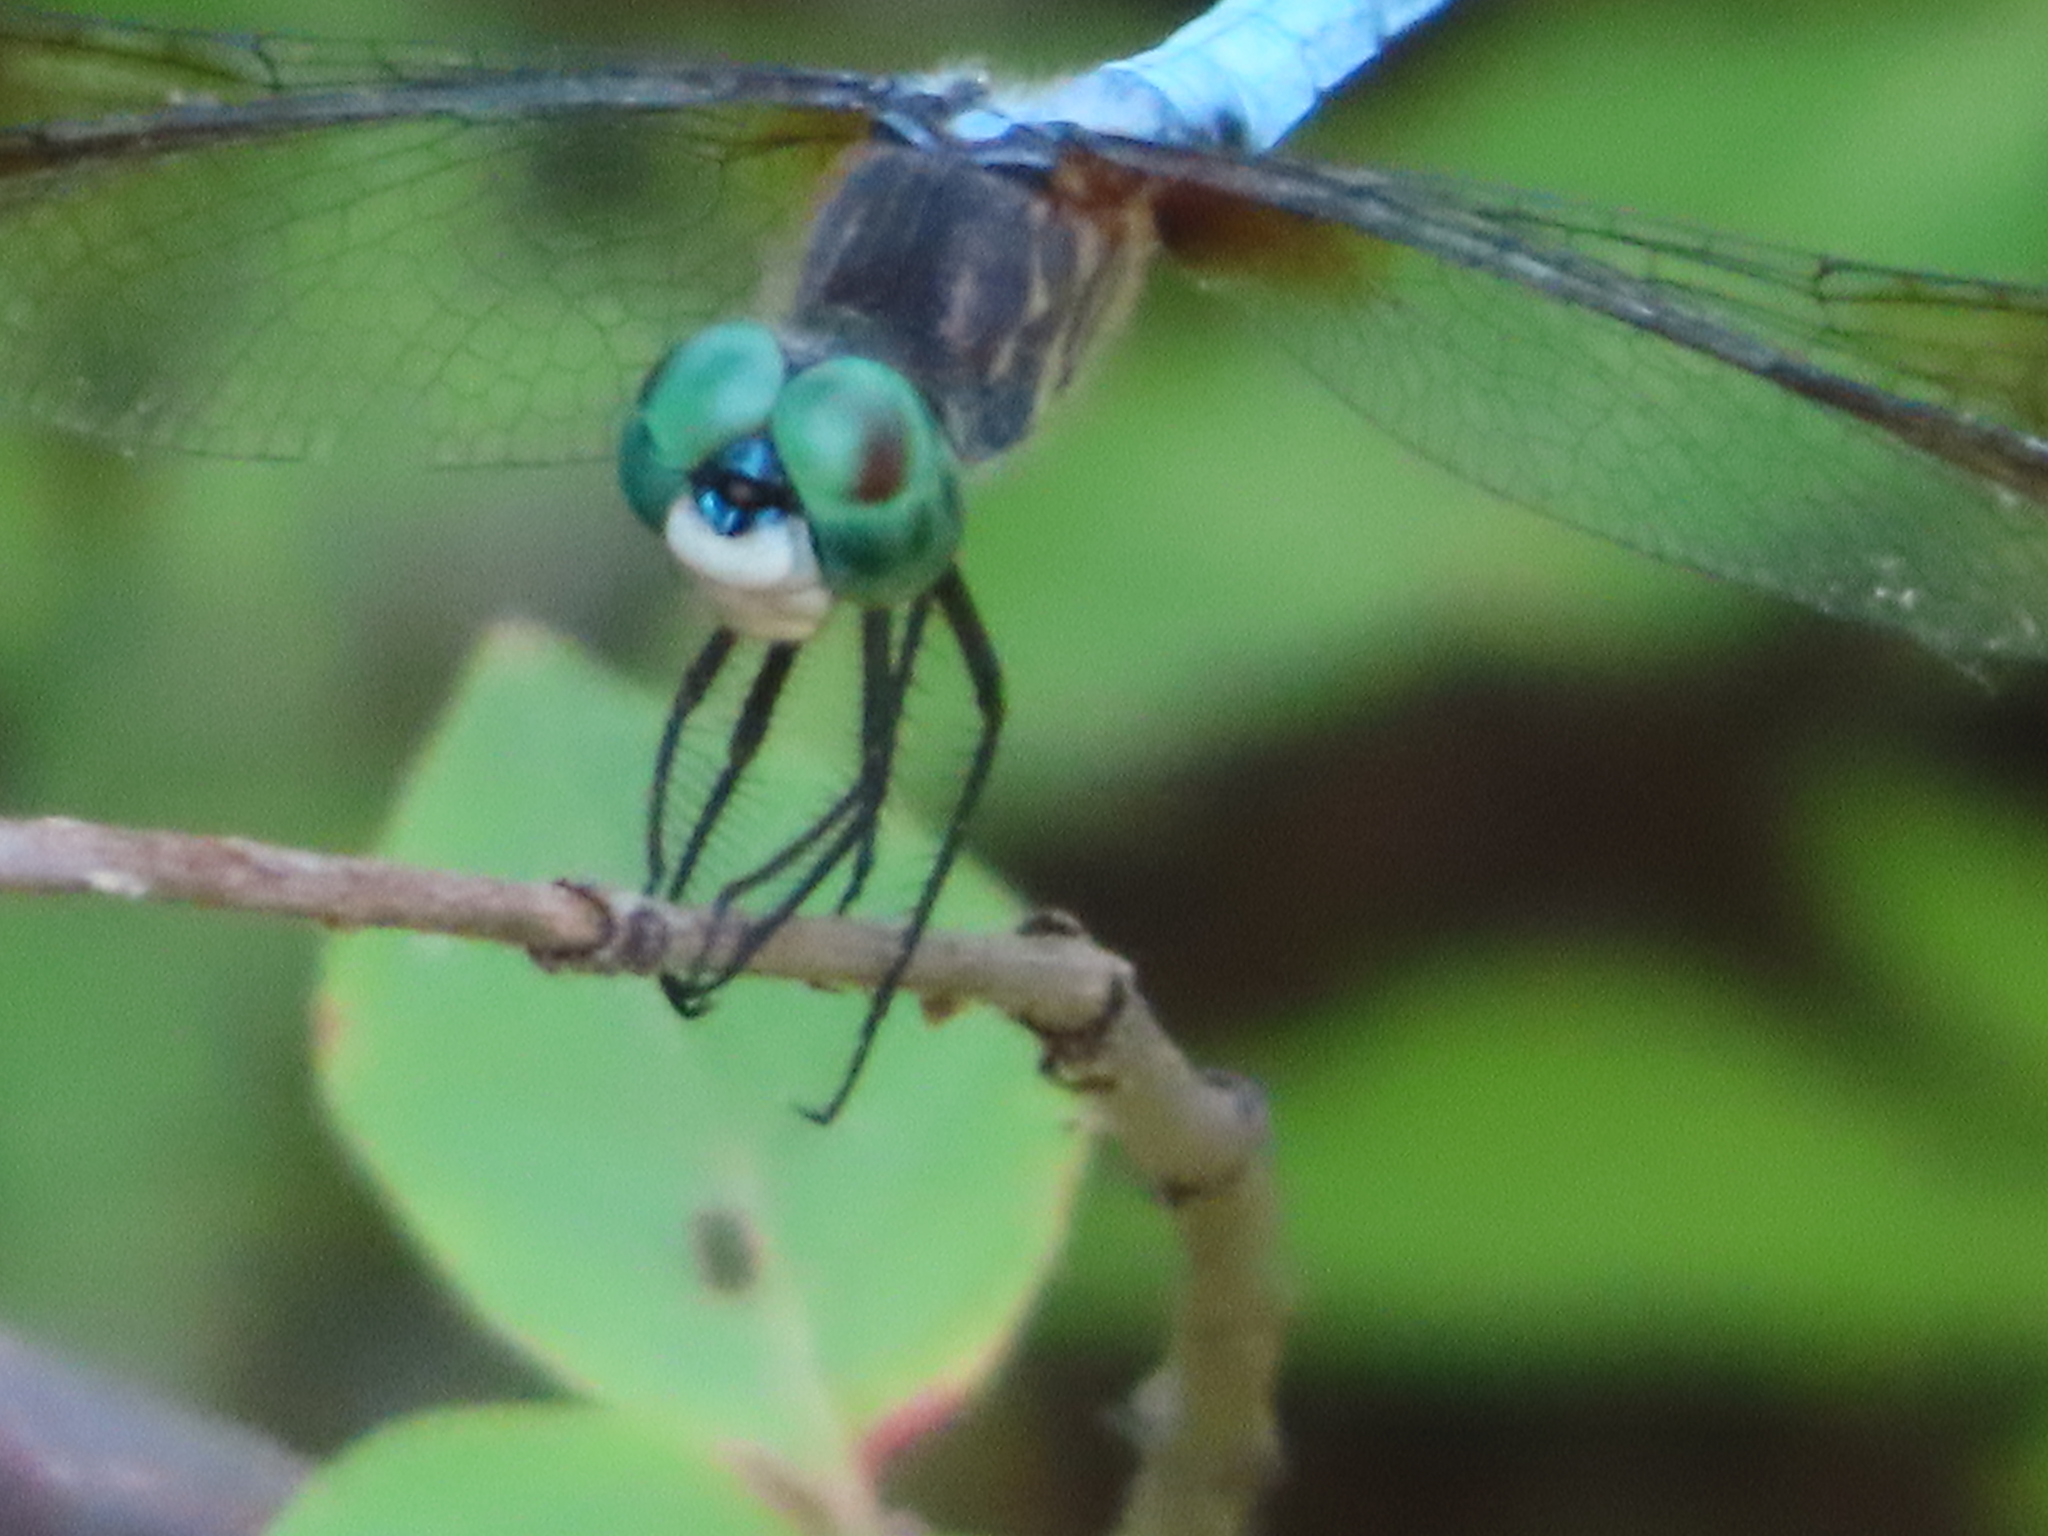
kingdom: Animalia
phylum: Arthropoda
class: Insecta
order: Odonata
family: Libellulidae
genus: Pachydiplax
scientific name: Pachydiplax longipennis
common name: Blue dasher
